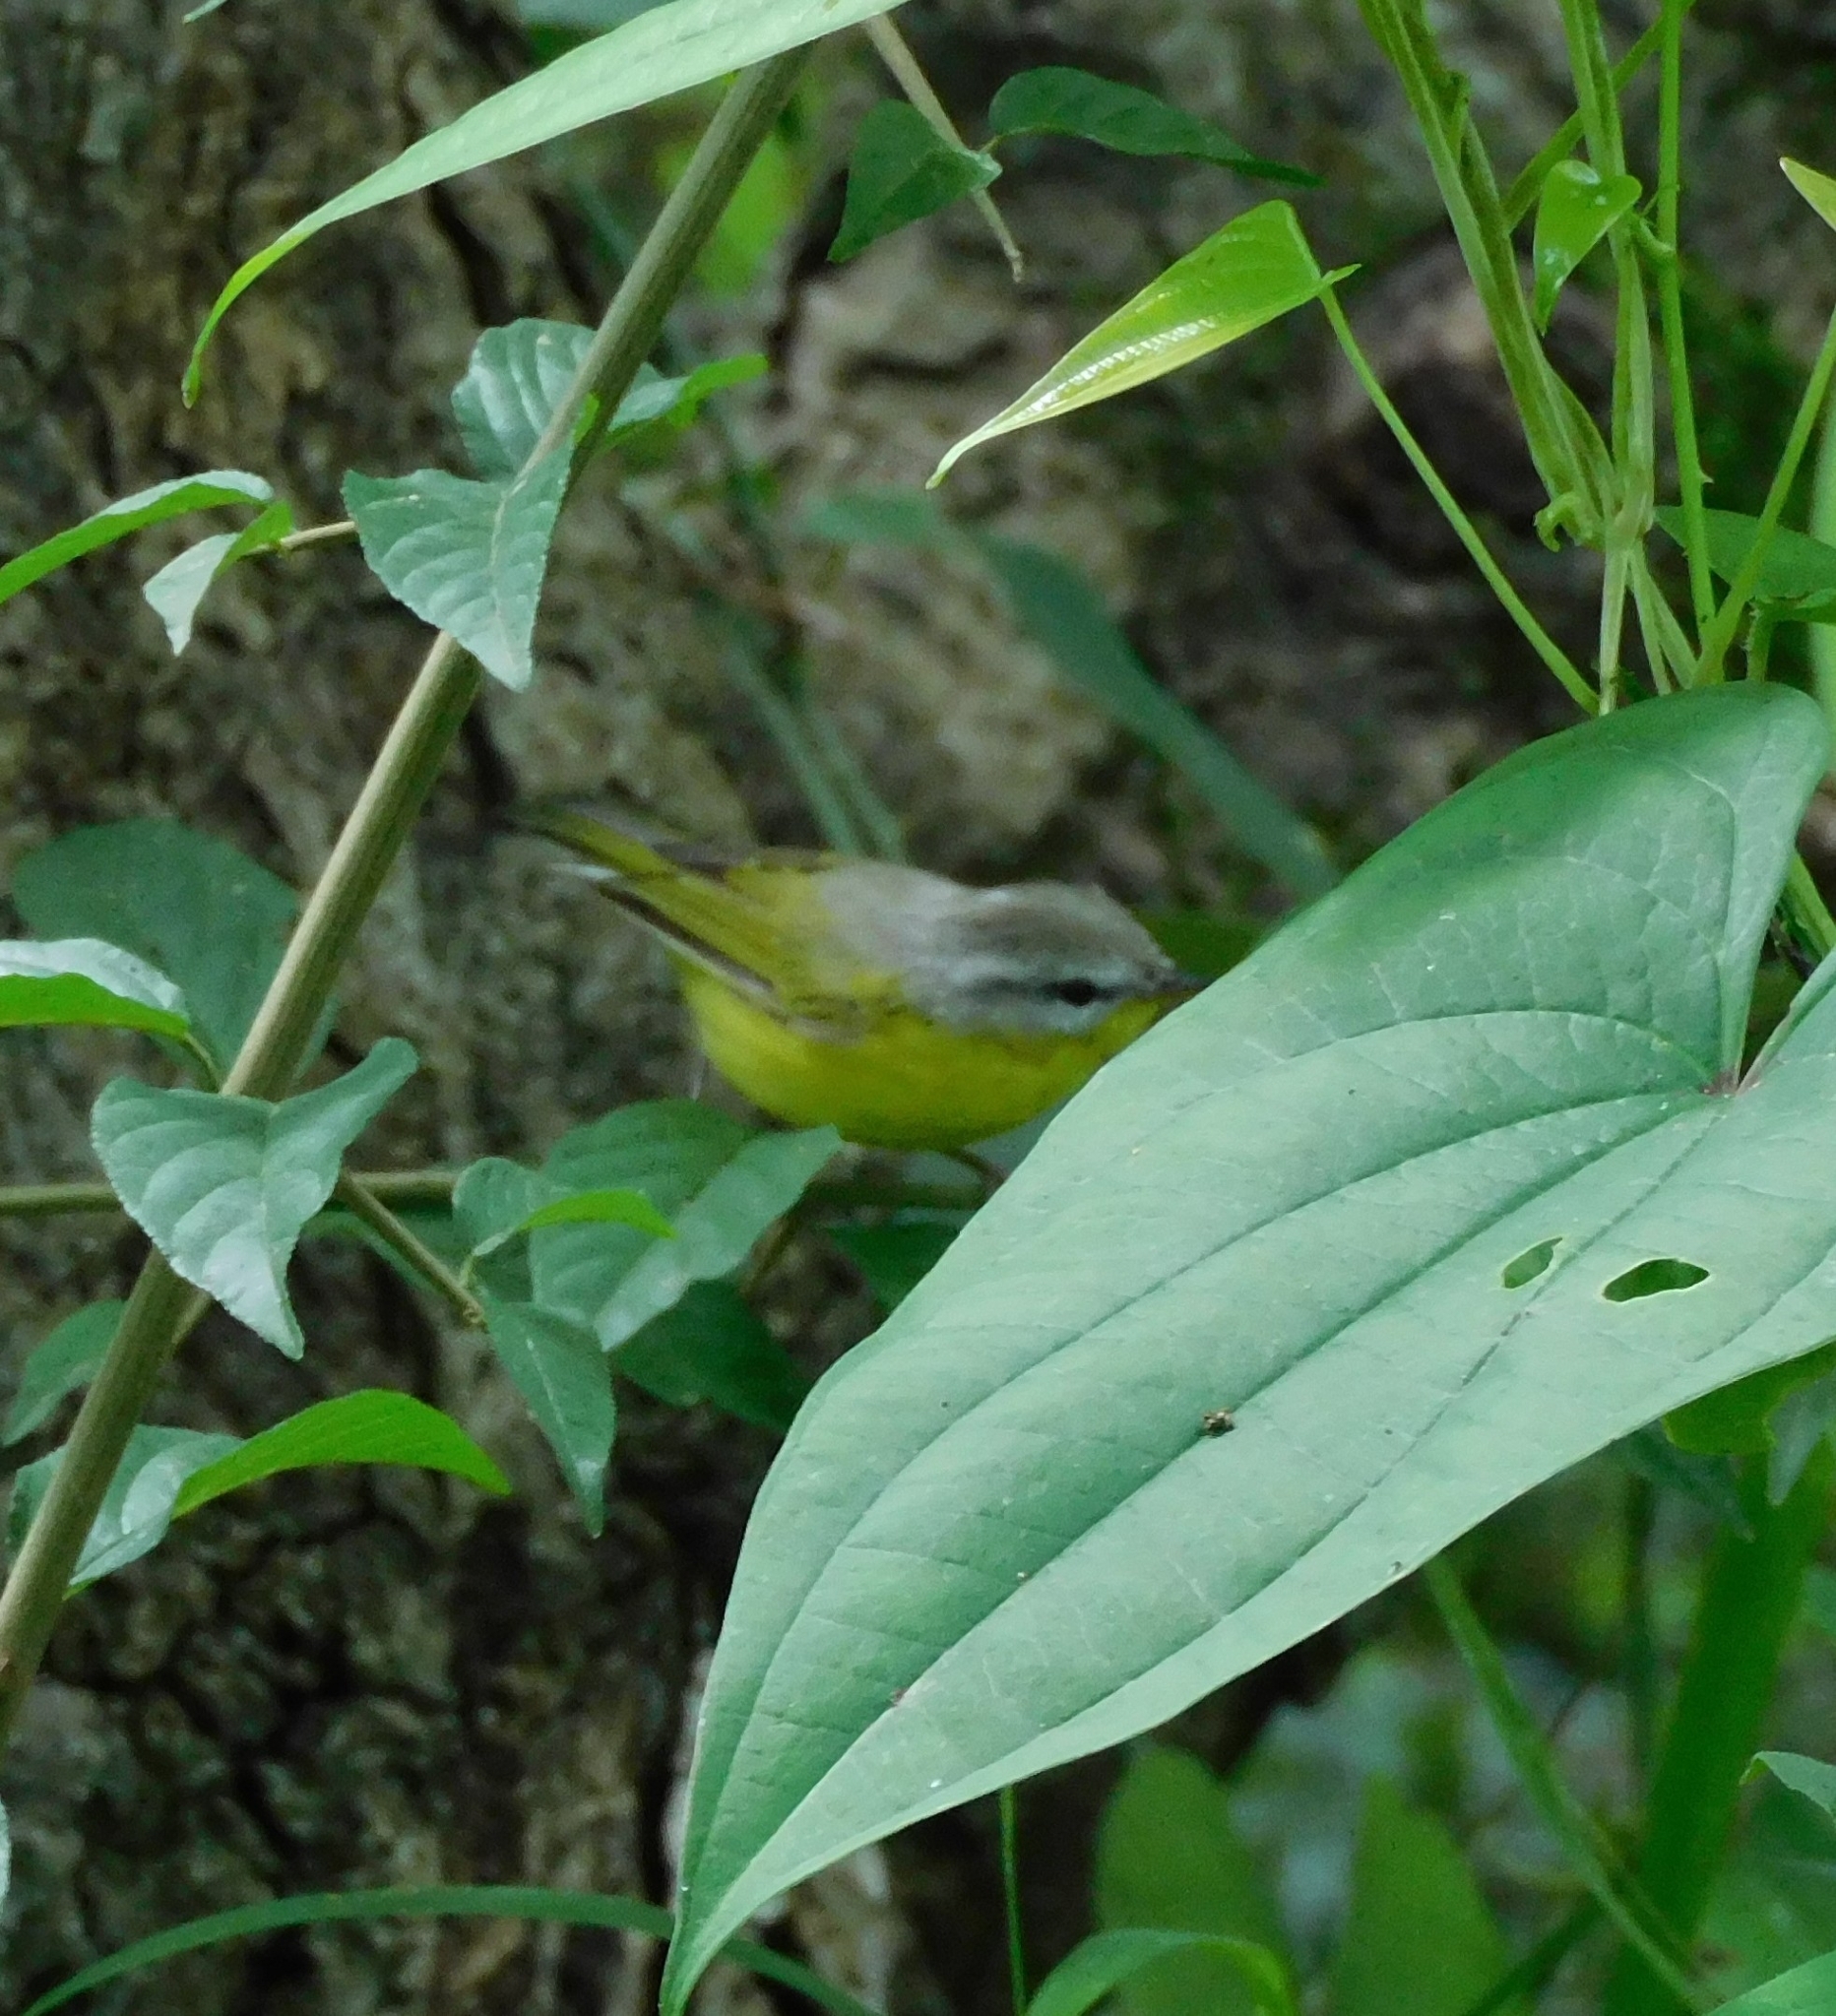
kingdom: Animalia
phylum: Chordata
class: Aves
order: Passeriformes
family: Phylloscopidae
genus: Phylloscopus
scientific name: Phylloscopus xanthoschistos
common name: Grey-hooded warbler
